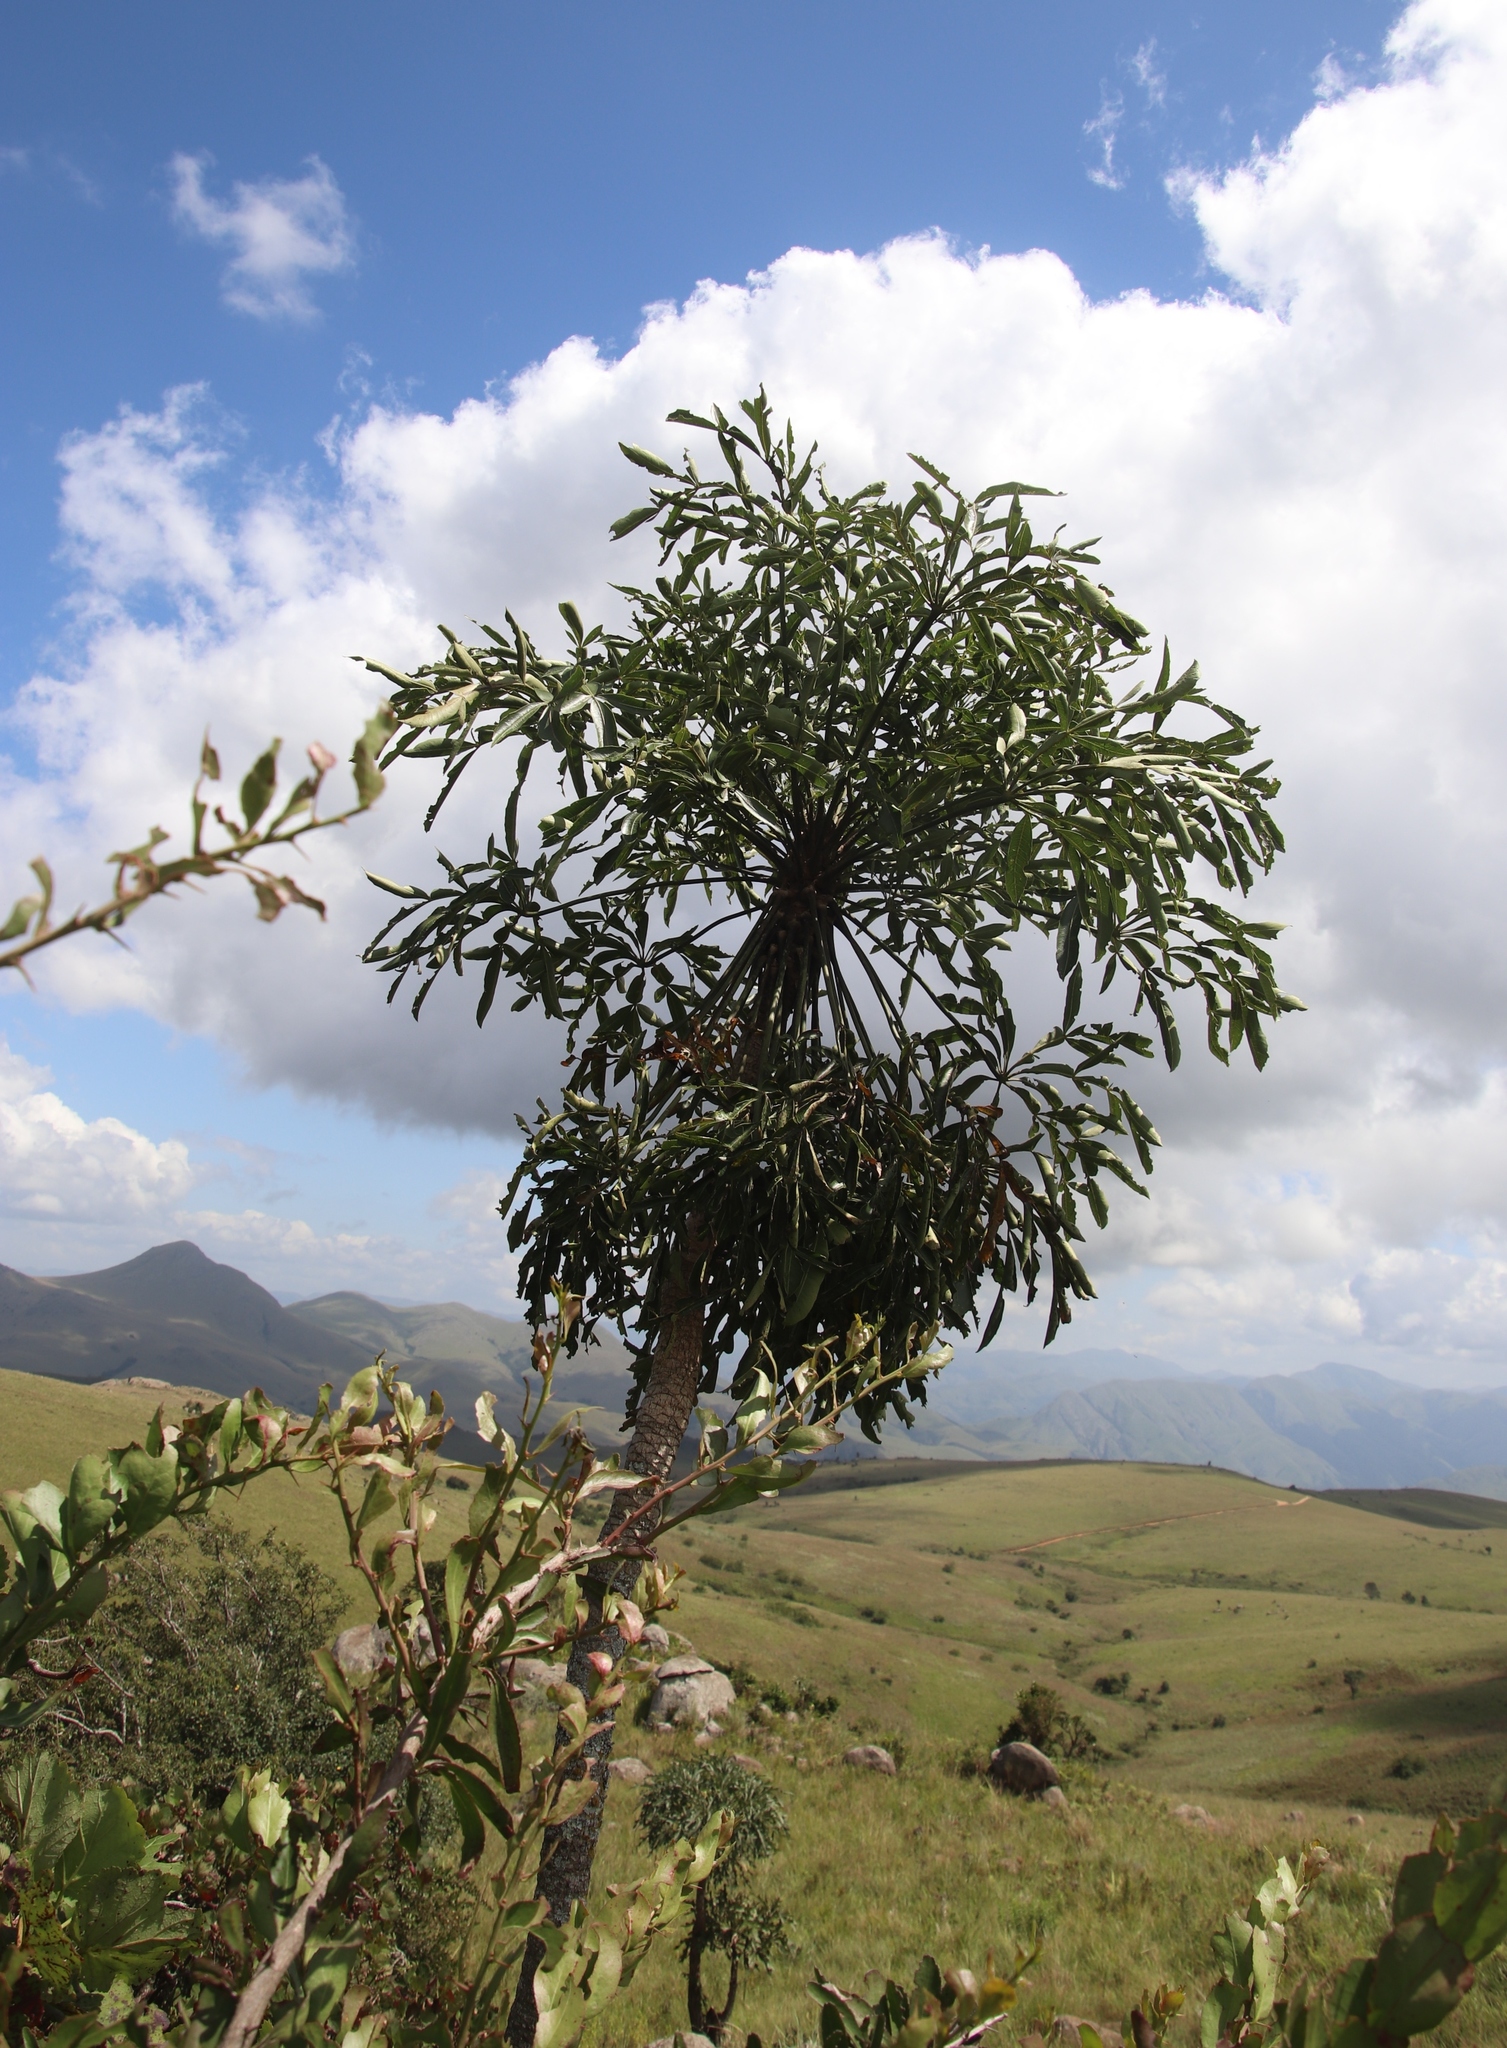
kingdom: Plantae
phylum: Tracheophyta
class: Magnoliopsida
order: Apiales
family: Araliaceae
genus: Cussonia
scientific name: Cussonia spicata
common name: Common cabbagetree
